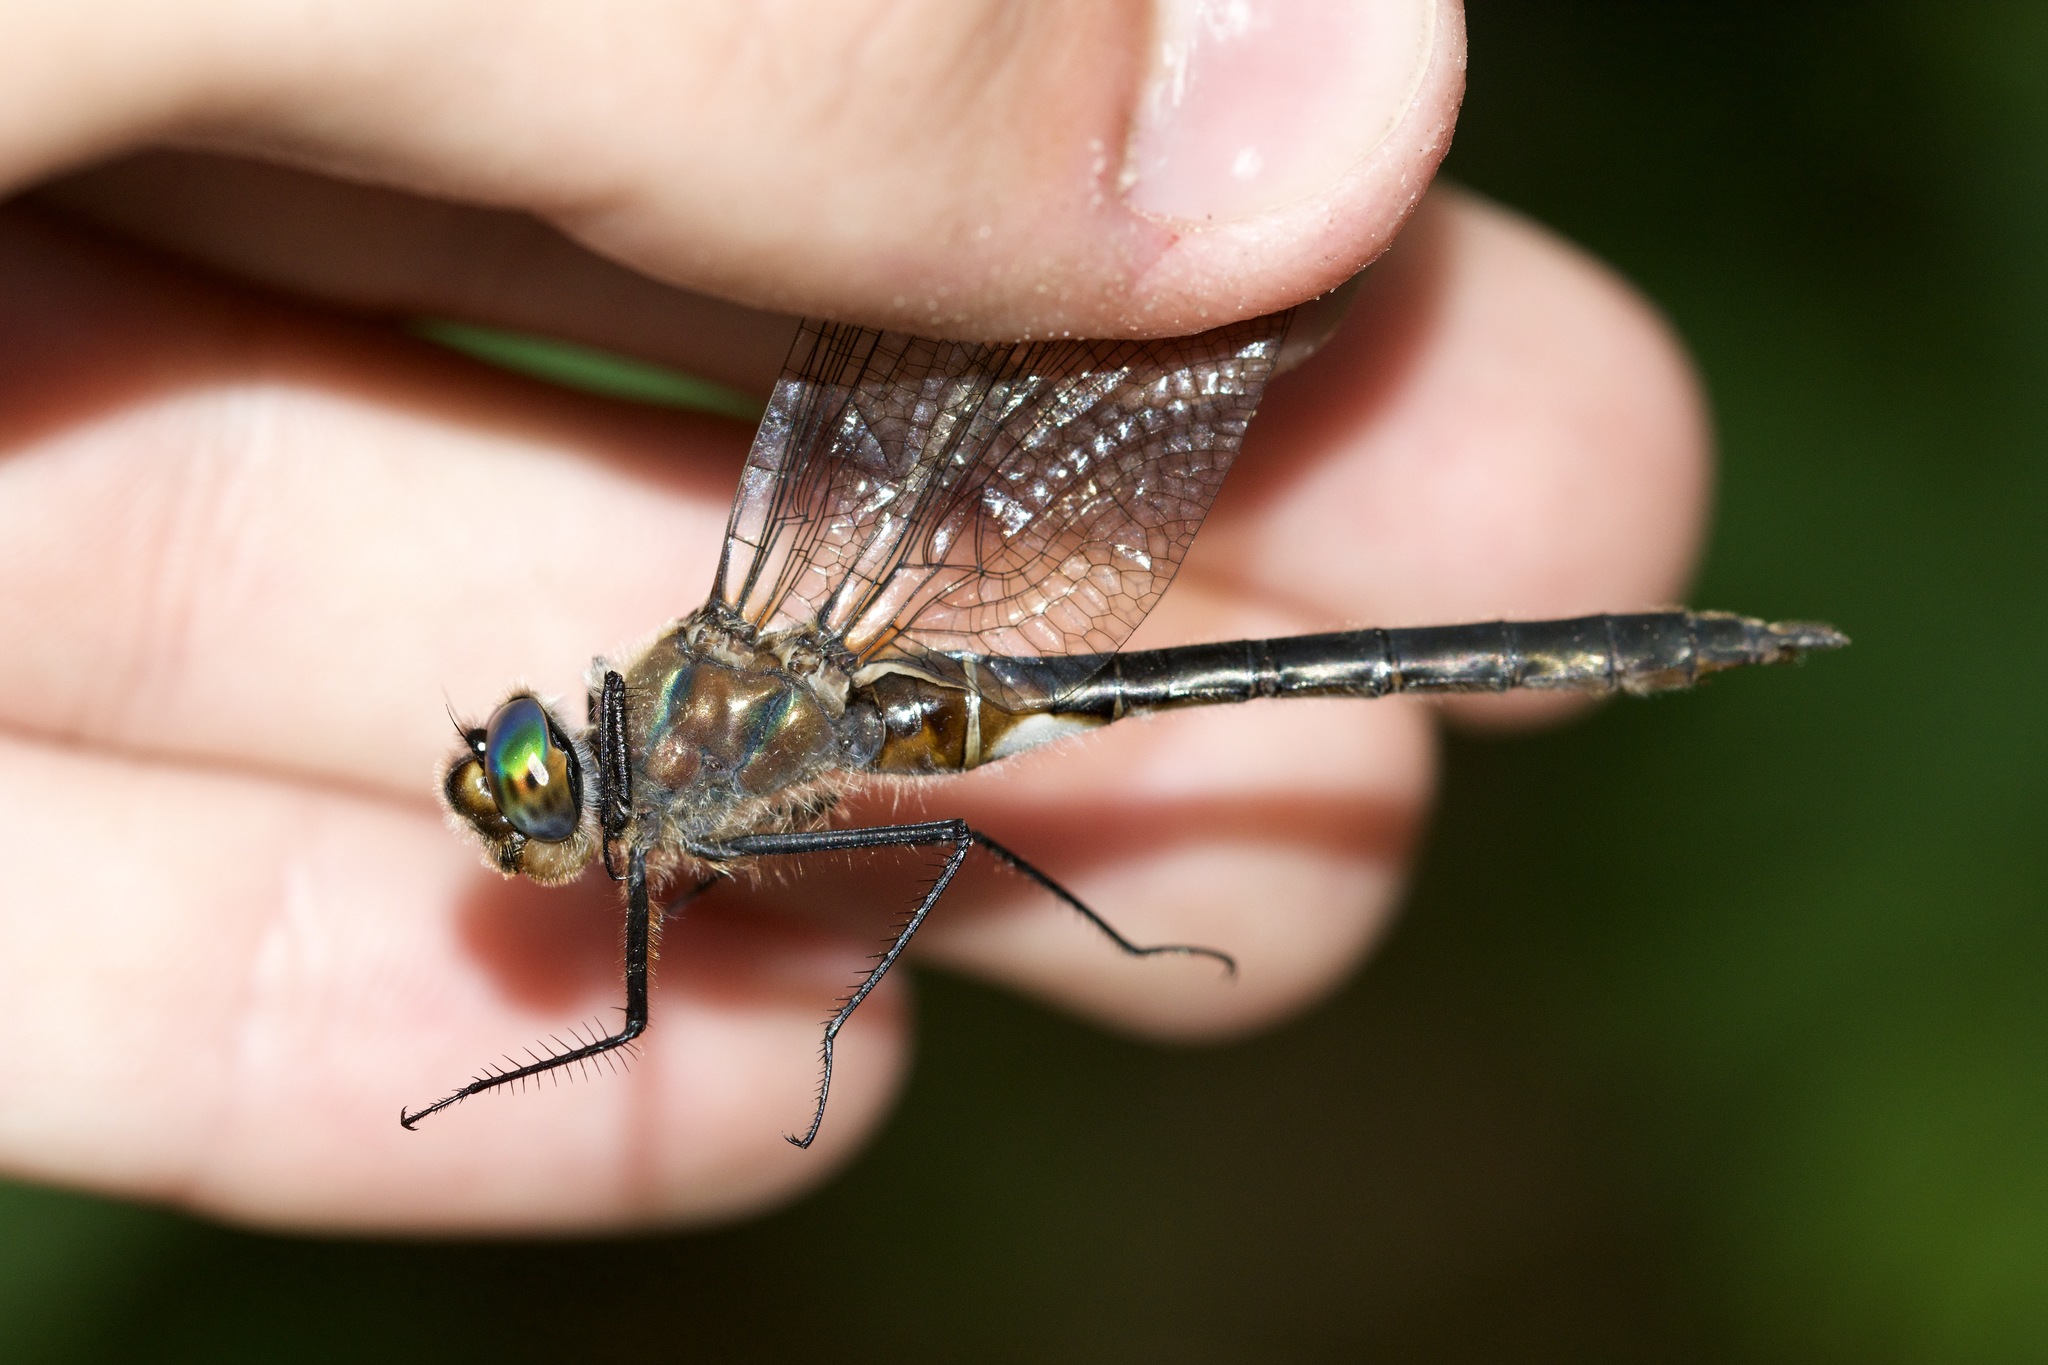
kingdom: Animalia
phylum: Arthropoda
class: Insecta
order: Odonata
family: Corduliidae
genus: Cordulia
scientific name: Cordulia shurtleffii
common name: American emerald
